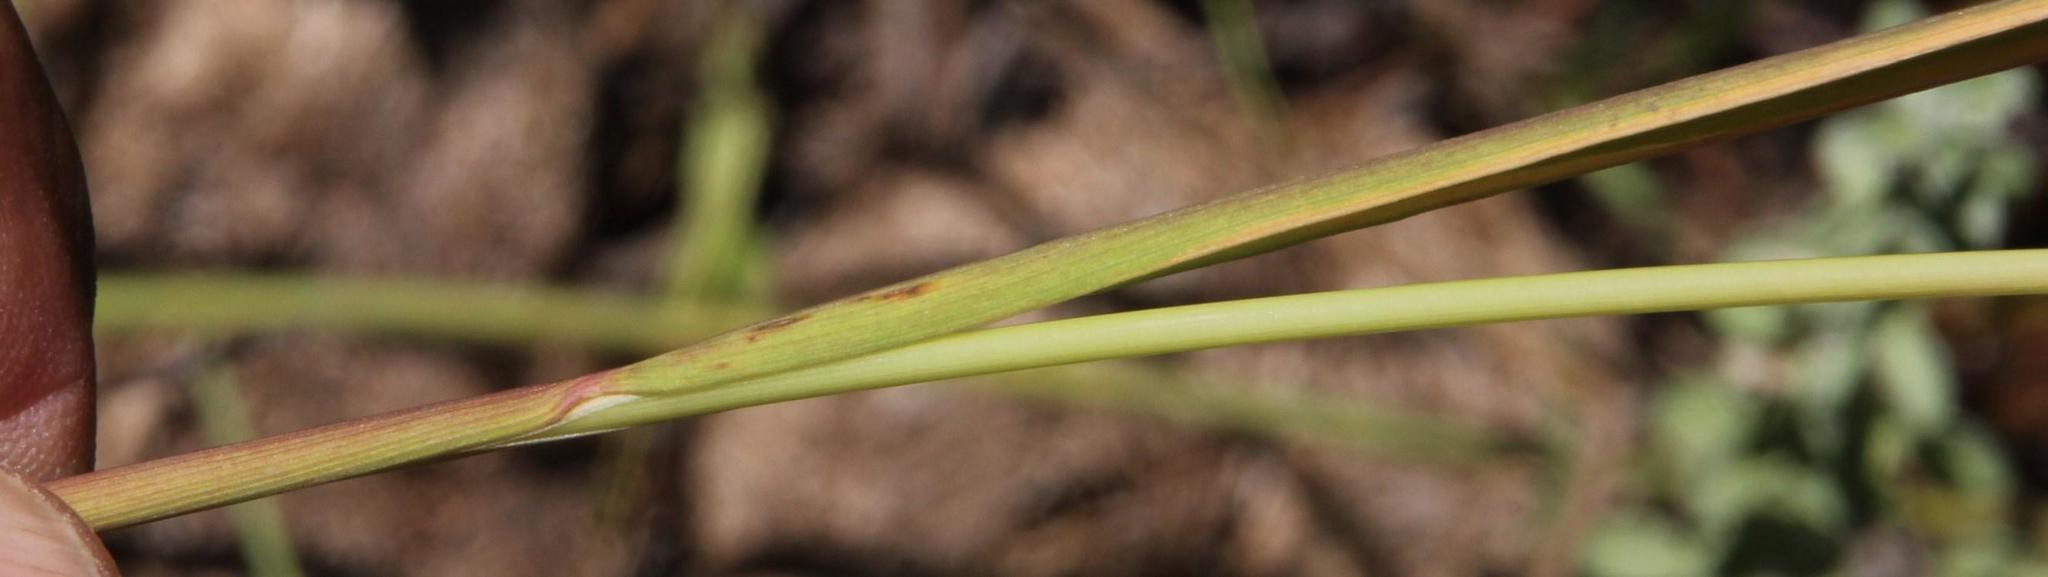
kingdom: Plantae
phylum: Tracheophyta
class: Liliopsida
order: Poales
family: Poaceae
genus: Polypogon
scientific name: Polypogon monspeliensis
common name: Annual rabbitsfoot grass
